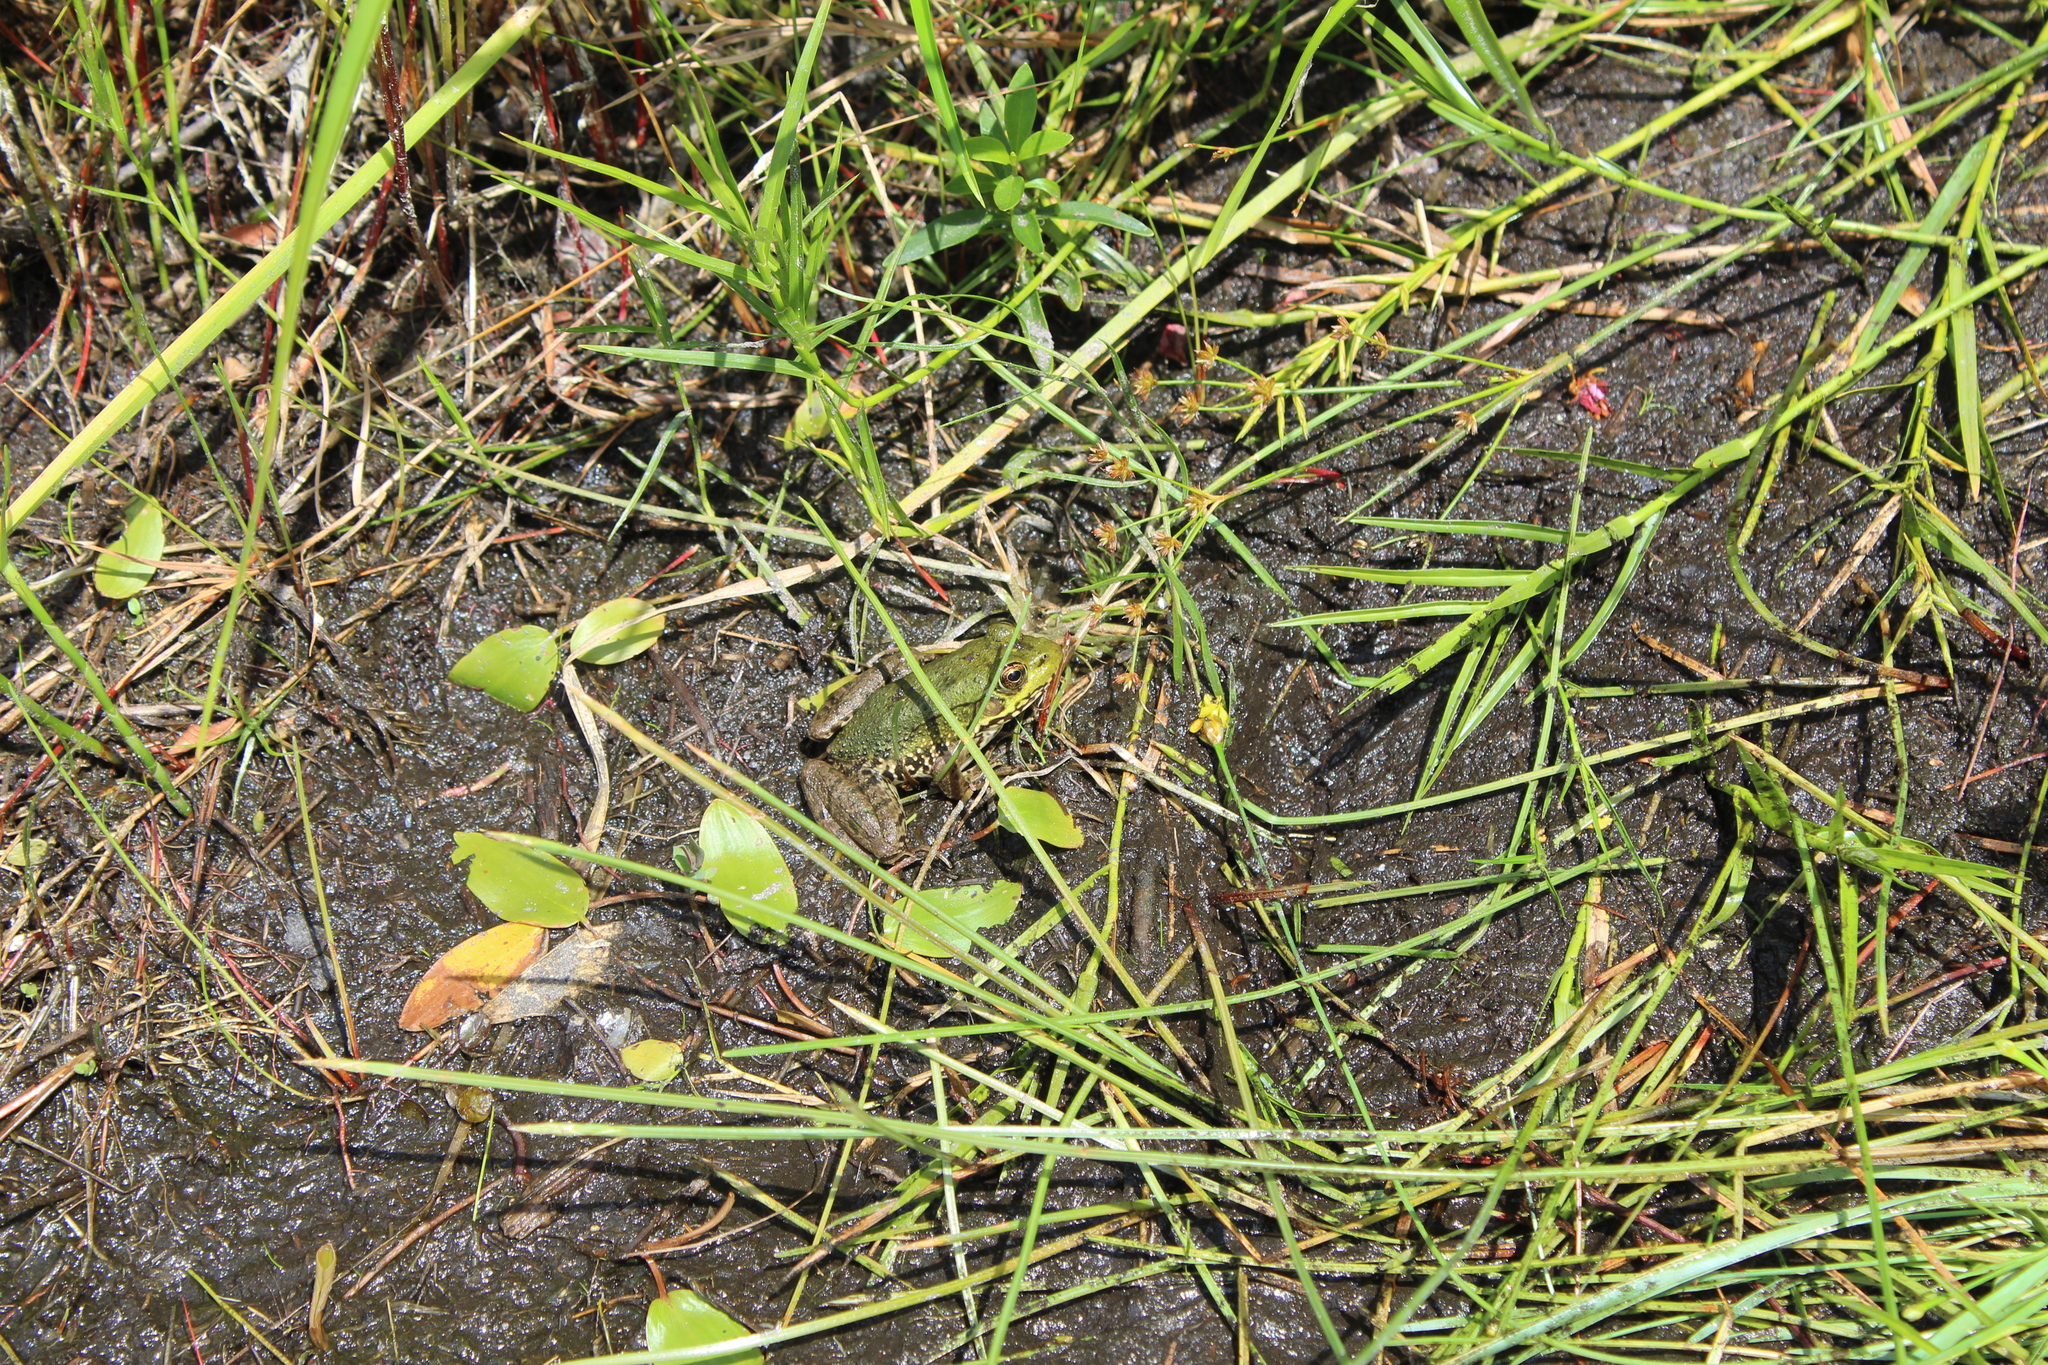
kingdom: Animalia
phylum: Chordata
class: Amphibia
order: Anura
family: Ranidae
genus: Lithobates
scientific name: Lithobates clamitans
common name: Green frog
